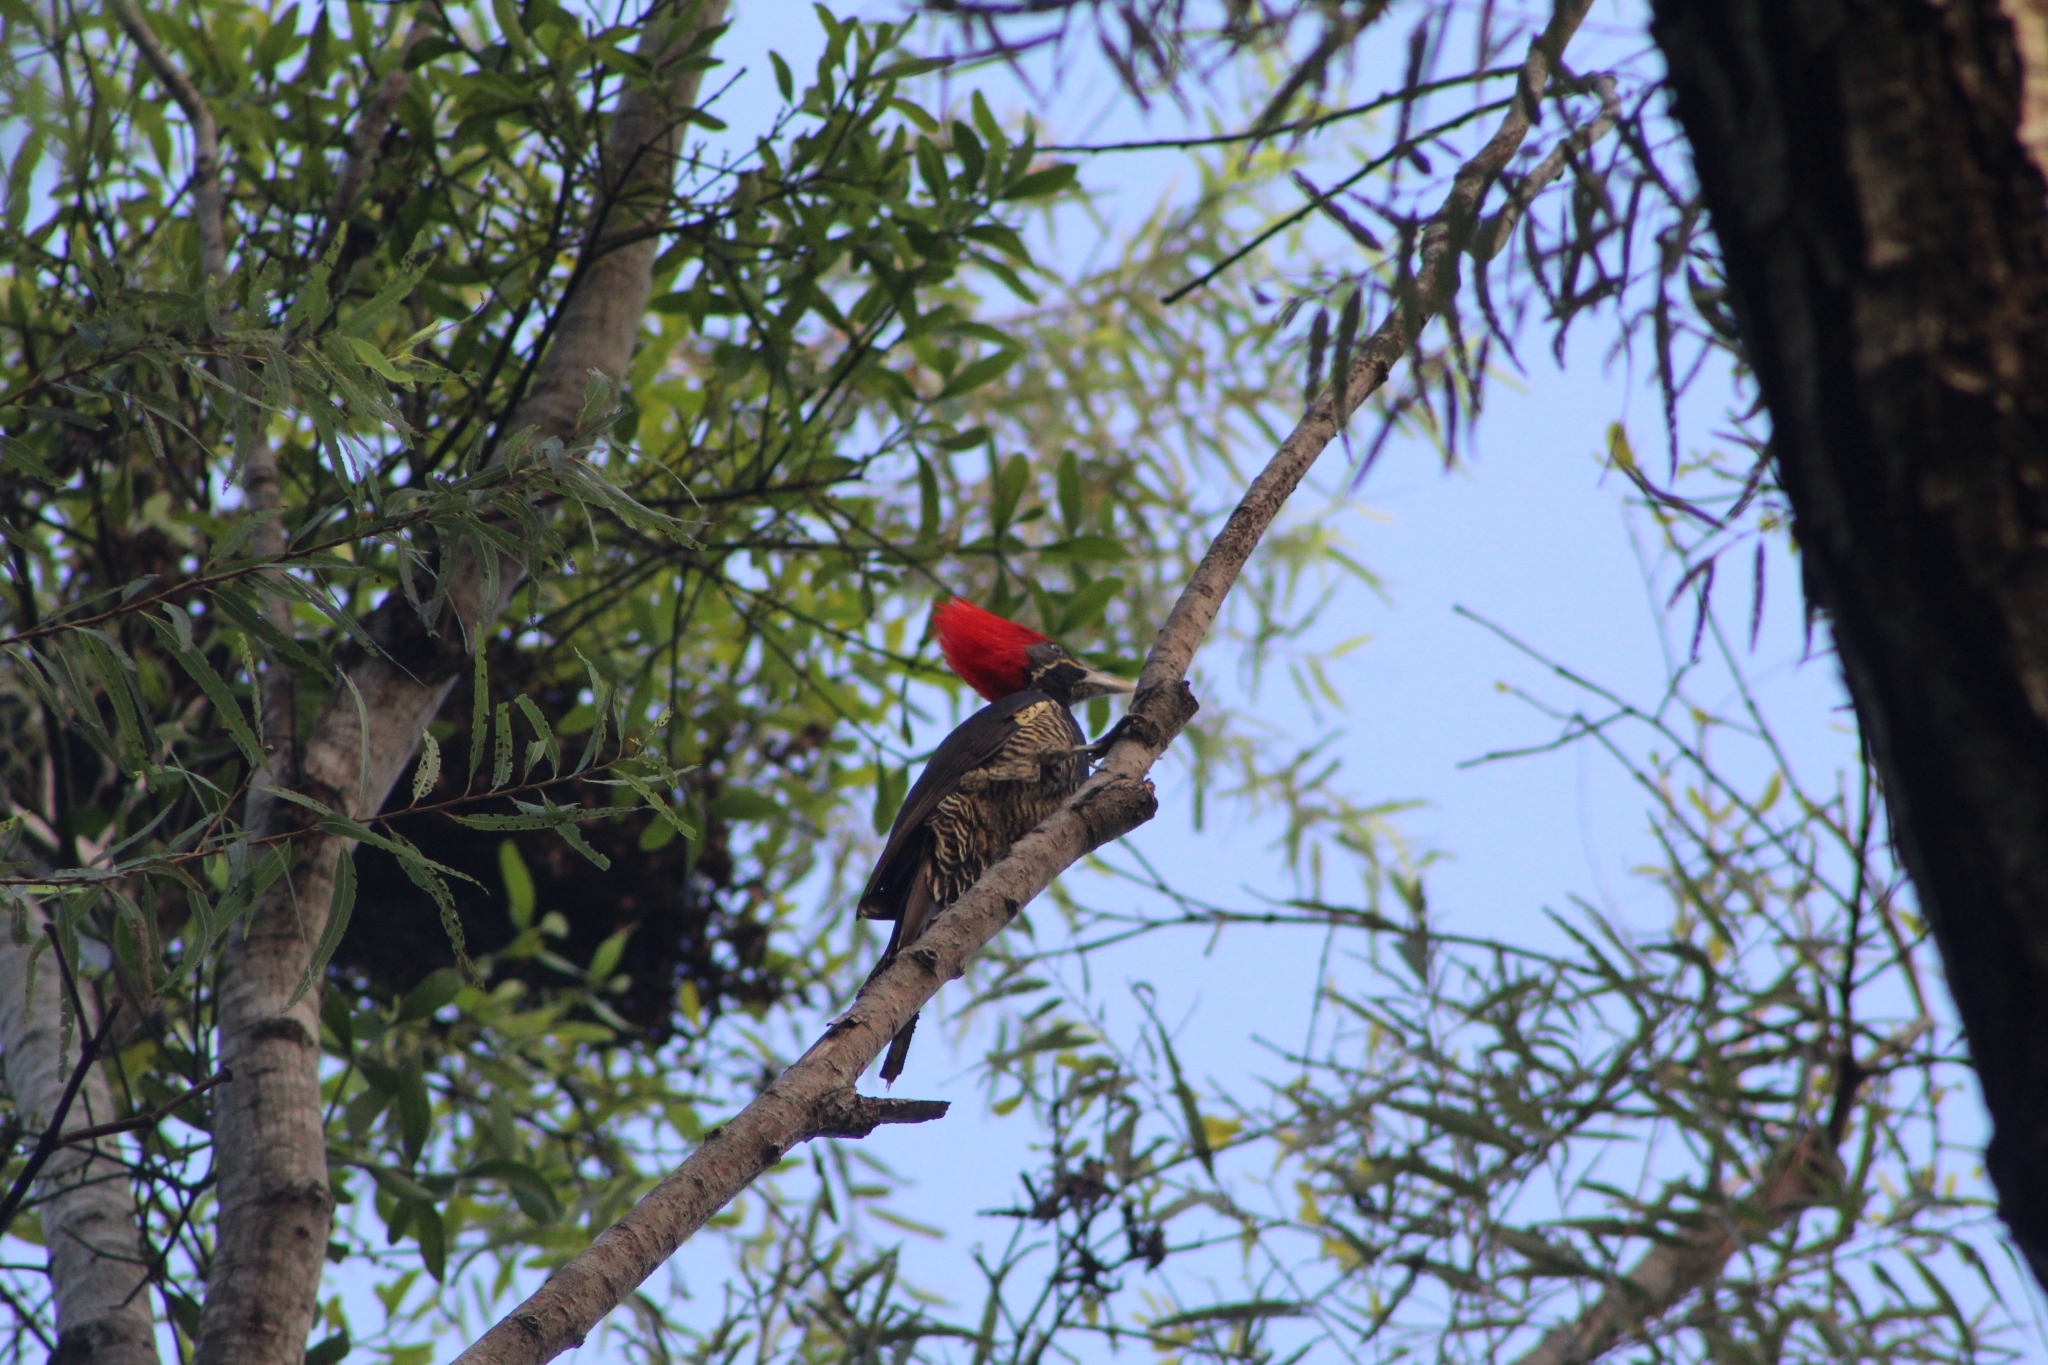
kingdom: Animalia
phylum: Chordata
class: Aves
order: Piciformes
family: Picidae
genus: Dryocopus
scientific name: Dryocopus lineatus
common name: Lineated woodpecker
